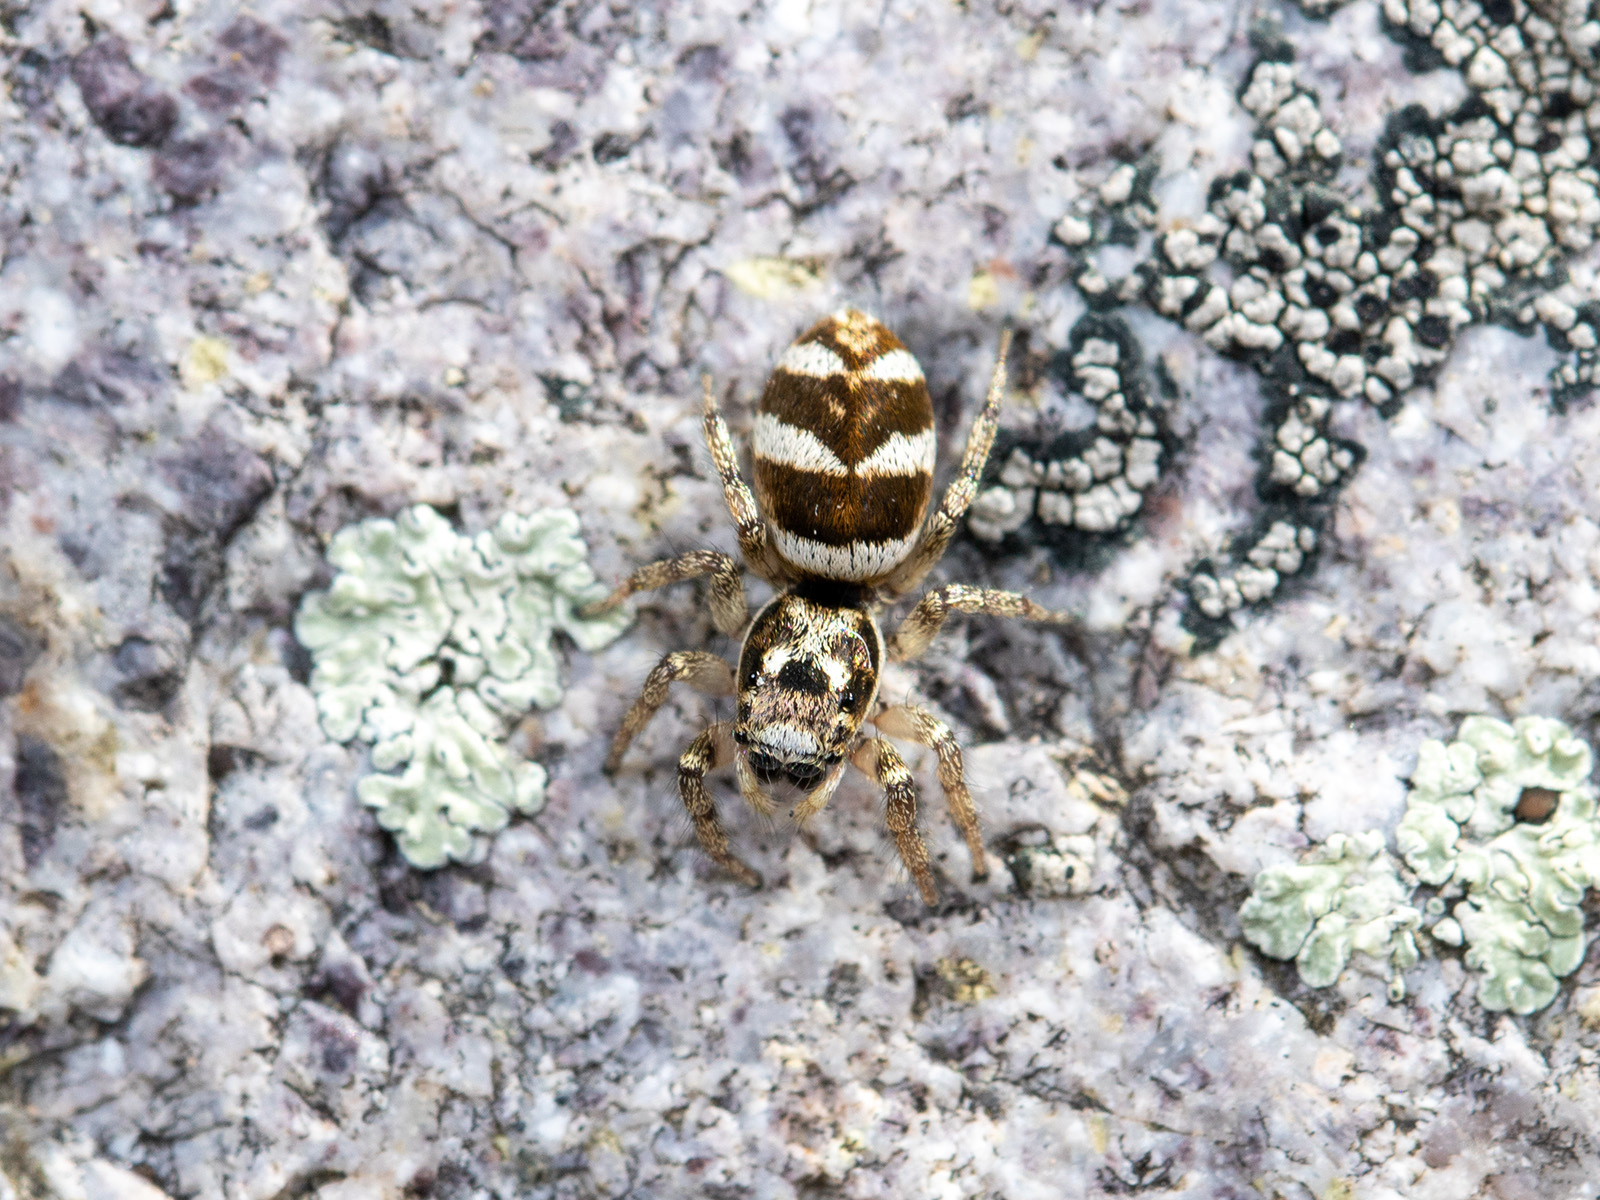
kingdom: Animalia
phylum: Arthropoda
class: Arachnida
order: Araneae
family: Salticidae
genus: Salticus
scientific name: Salticus scenicus
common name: Zebra jumper
